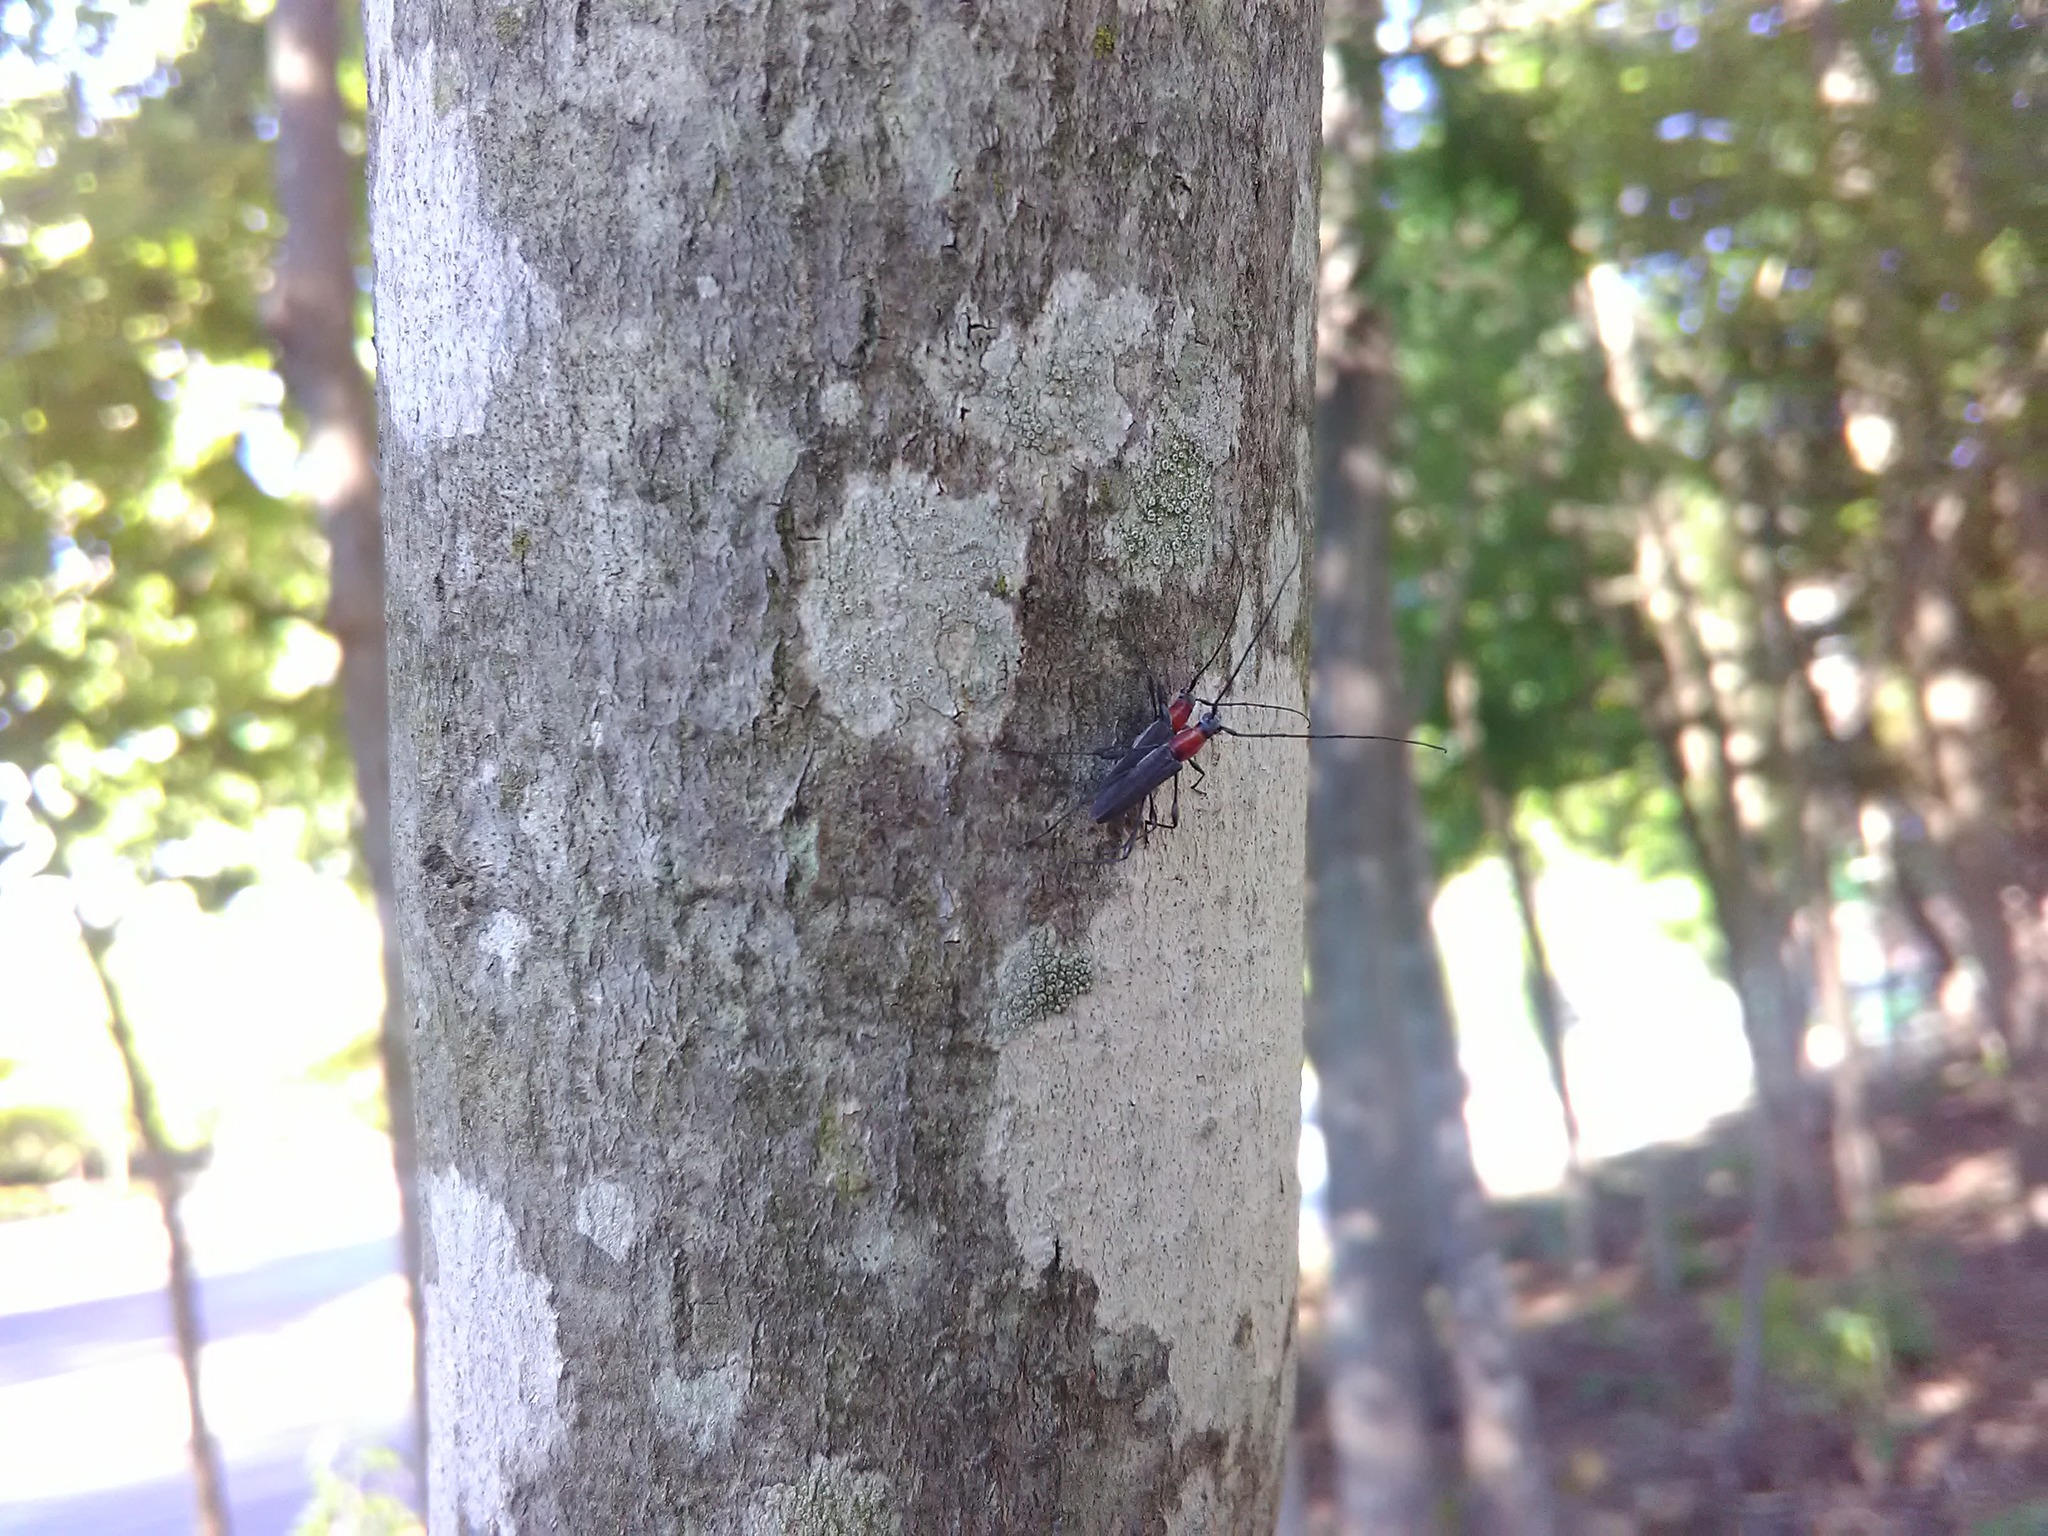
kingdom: Animalia
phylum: Arthropoda
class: Insecta
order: Coleoptera
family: Cerambycidae
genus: Rhopalophora
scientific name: Rhopalophora longipes
